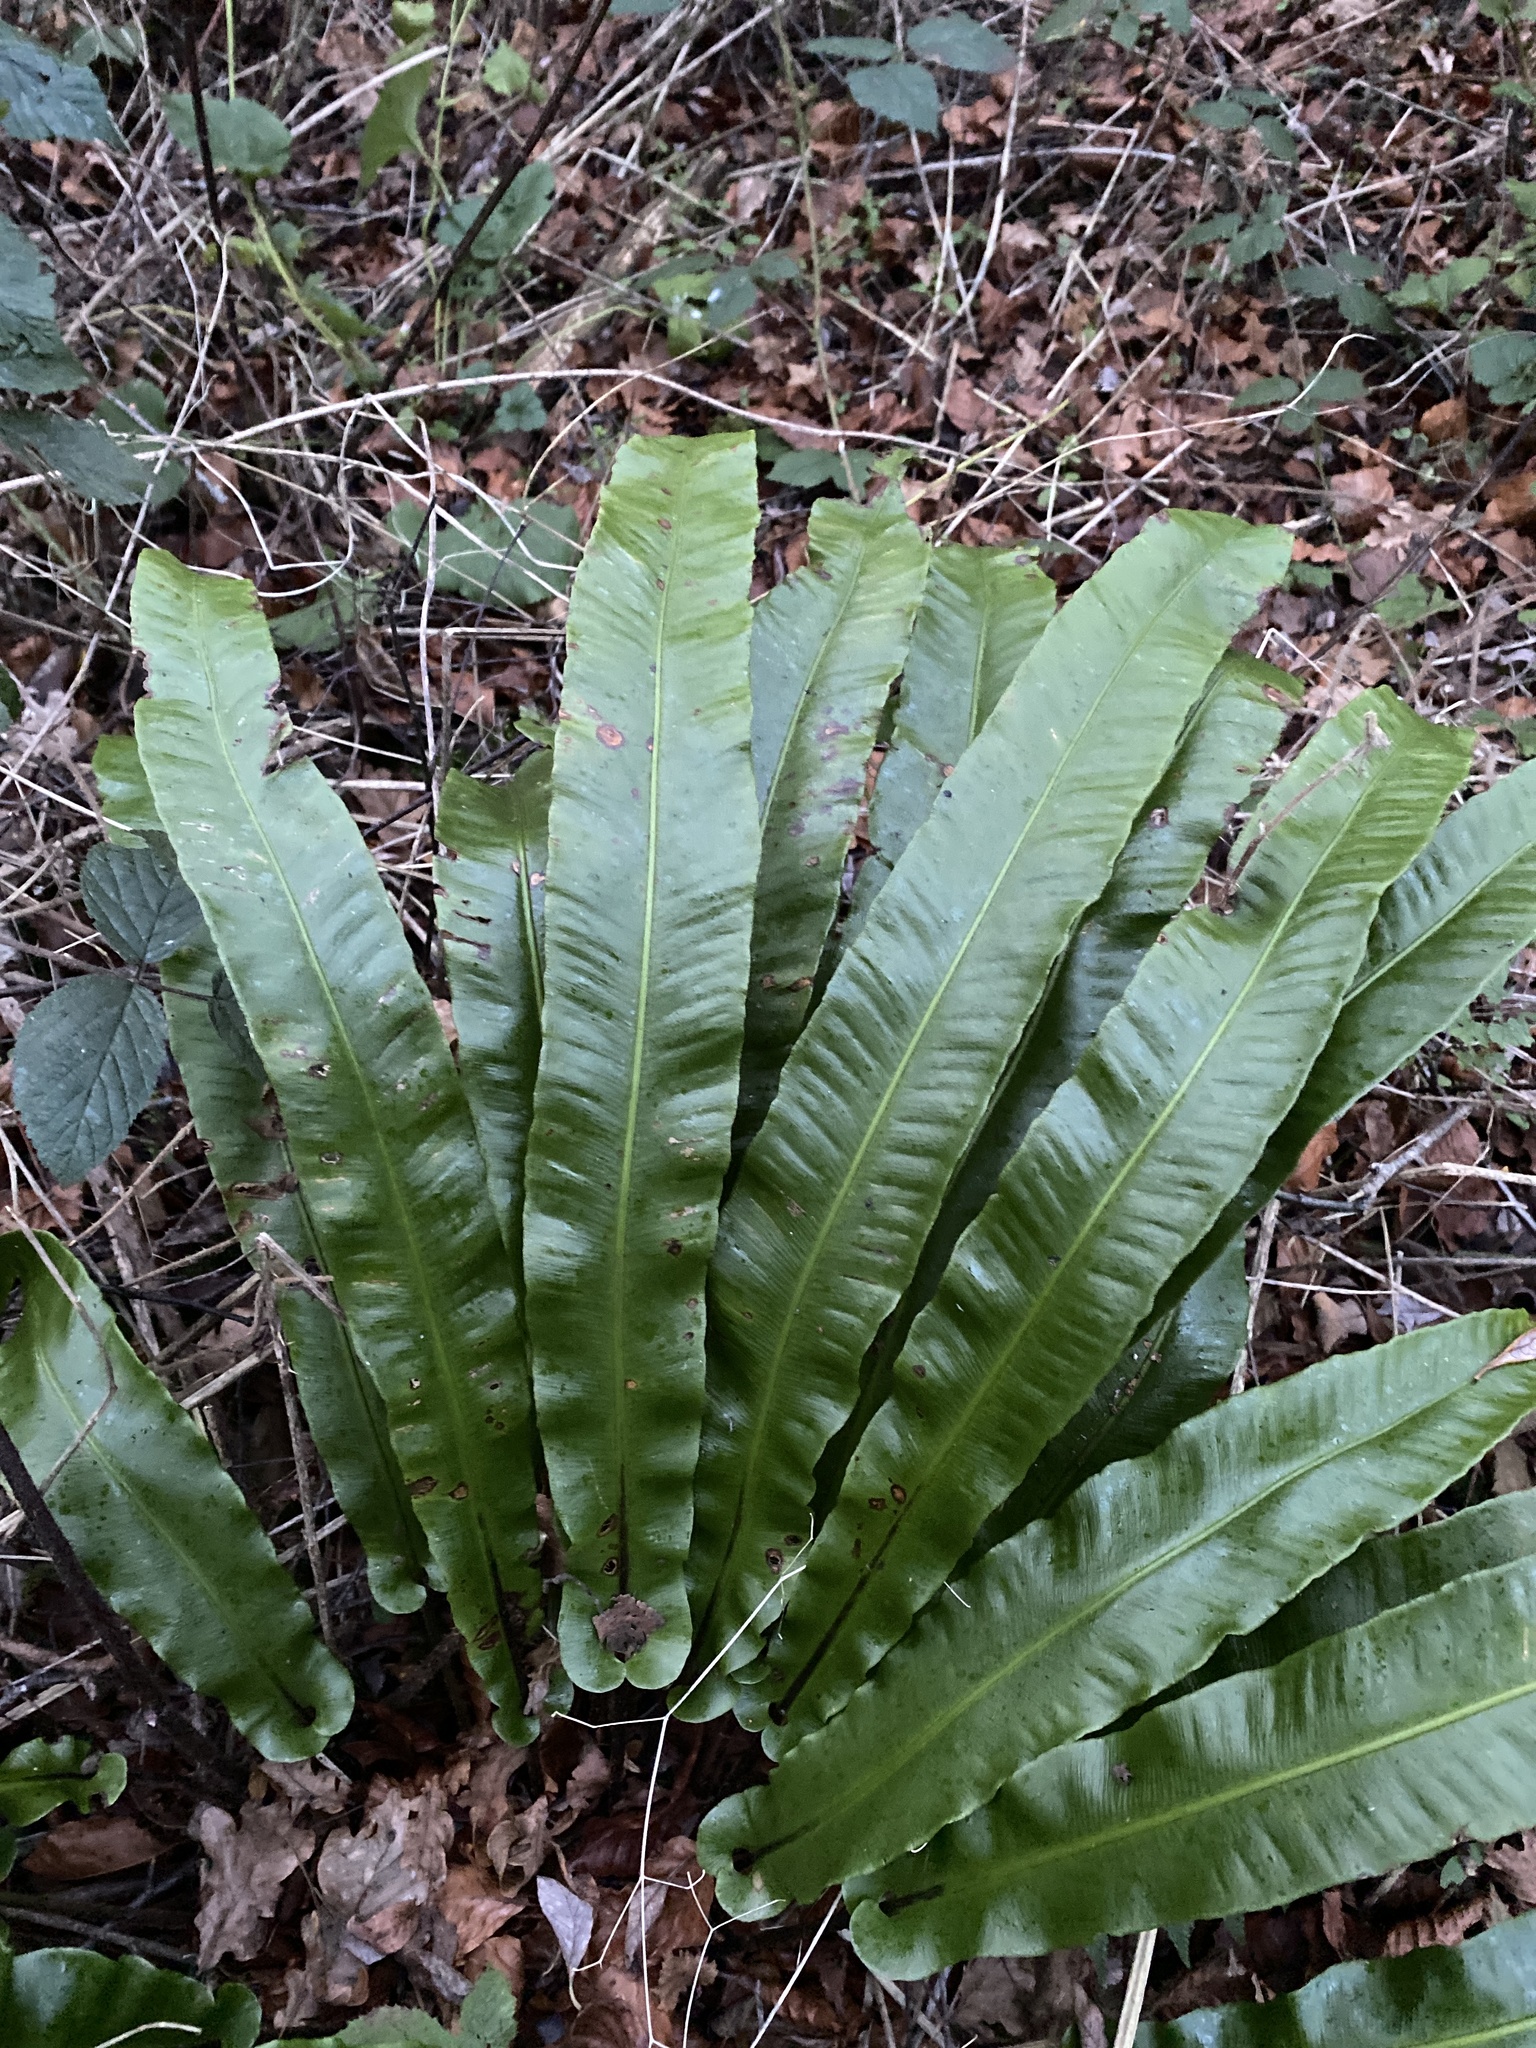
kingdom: Plantae
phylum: Tracheophyta
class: Polypodiopsida
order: Polypodiales
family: Aspleniaceae
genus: Asplenium
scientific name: Asplenium scolopendrium
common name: Hart's-tongue fern
